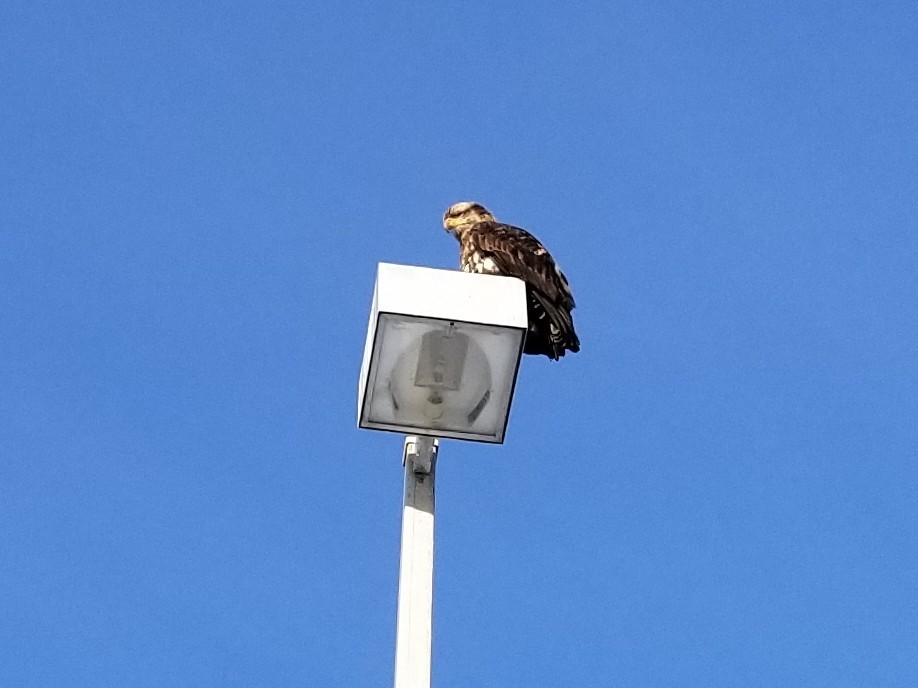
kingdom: Animalia
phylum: Chordata
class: Aves
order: Accipitriformes
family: Accipitridae
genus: Haliaeetus
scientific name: Haliaeetus leucocephalus
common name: Bald eagle
